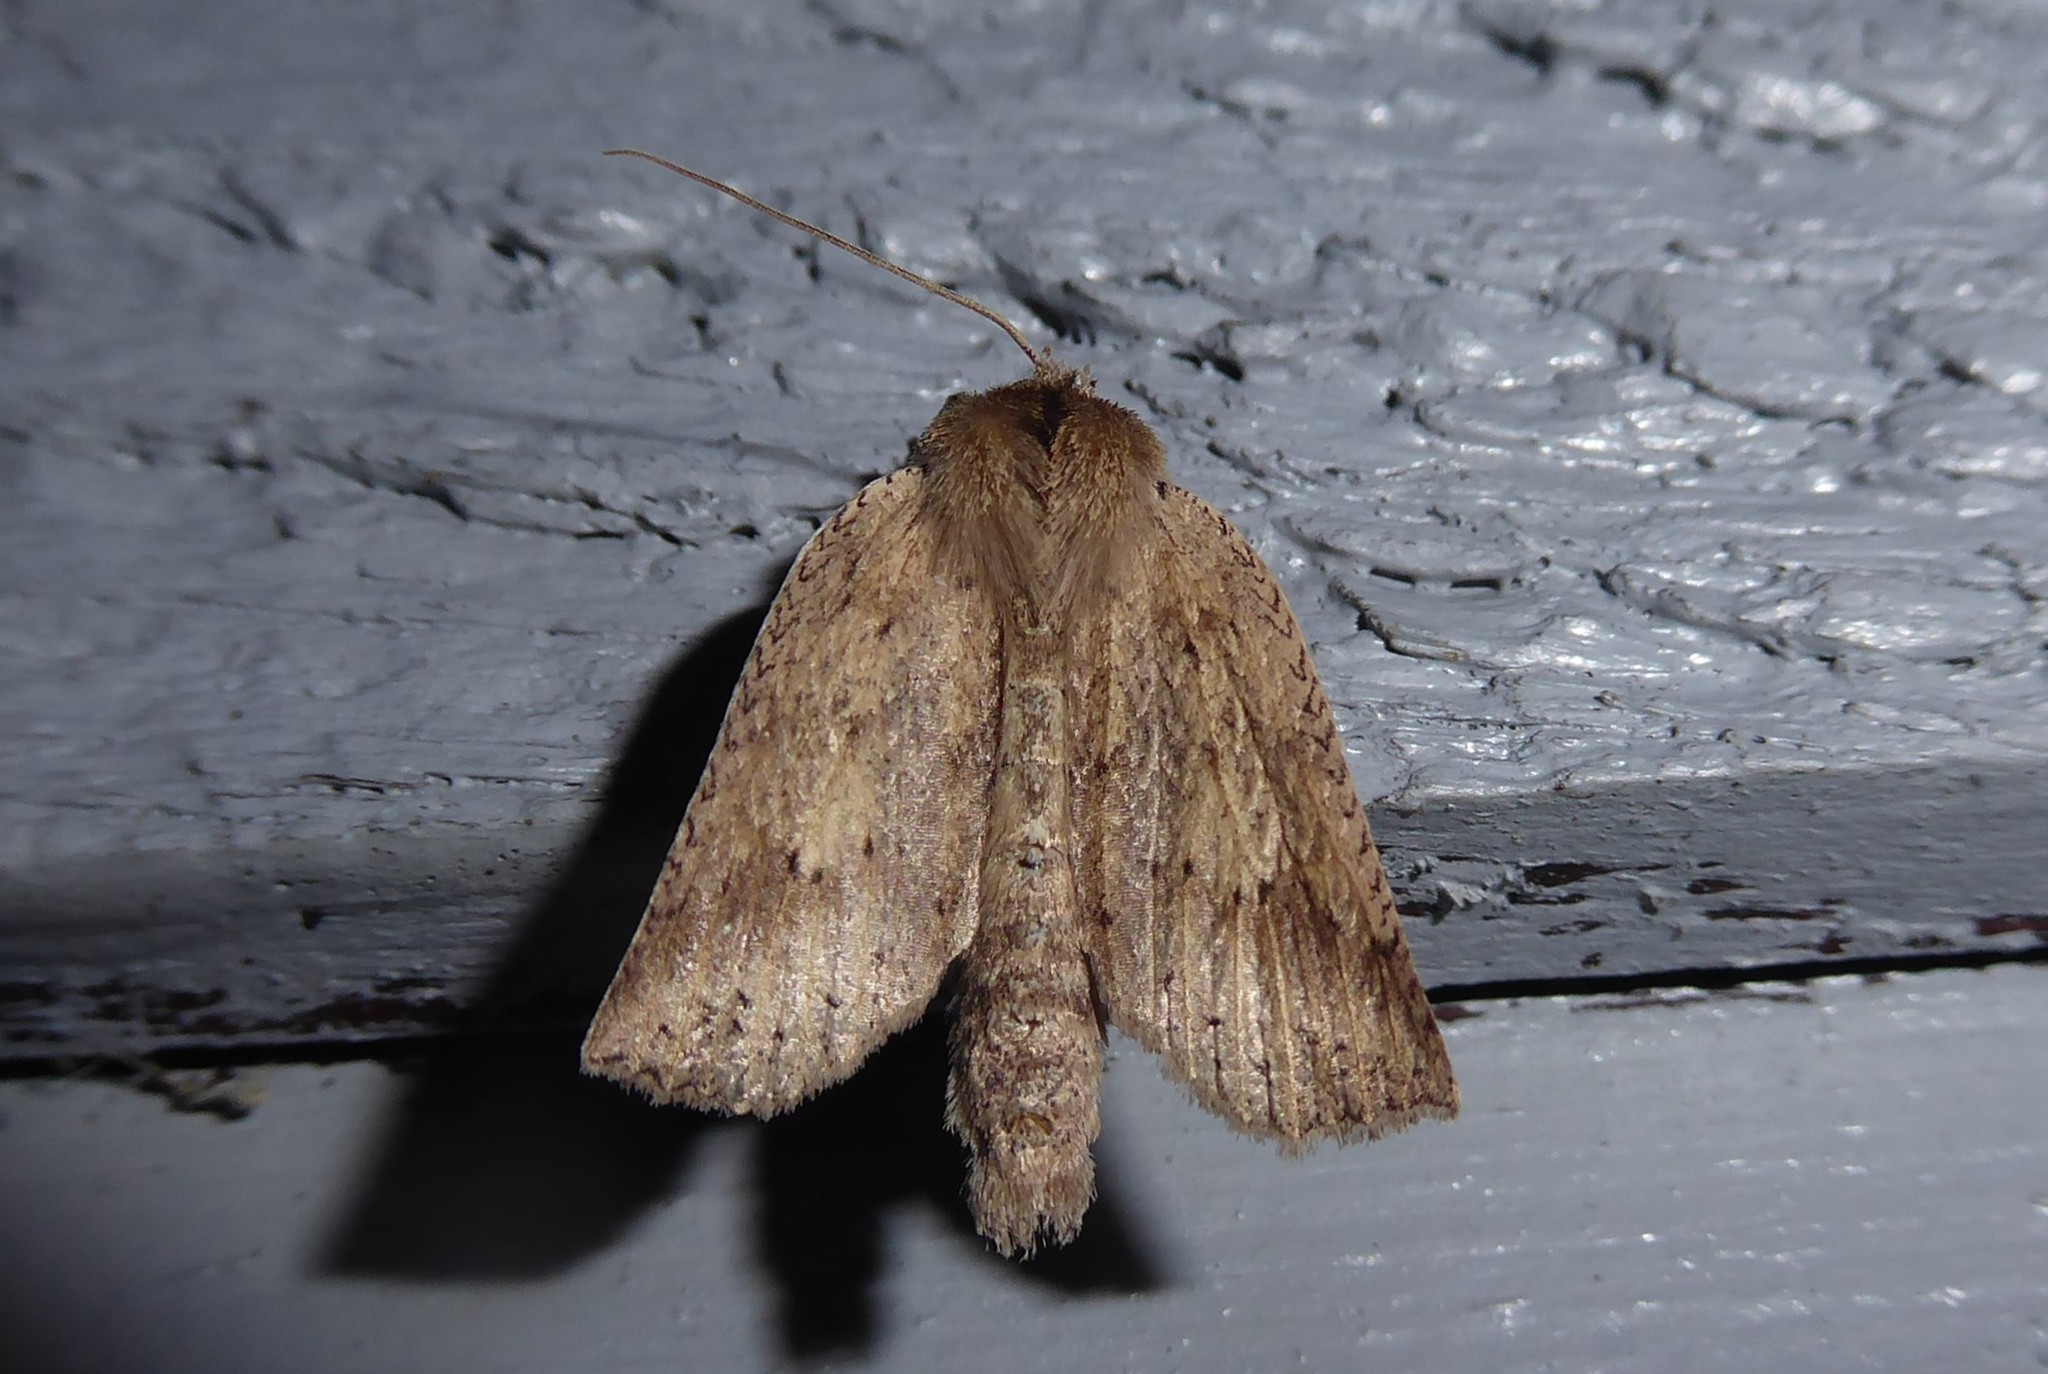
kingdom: Animalia
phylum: Arthropoda
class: Insecta
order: Lepidoptera
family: Geometridae
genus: Declana
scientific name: Declana leptomera
